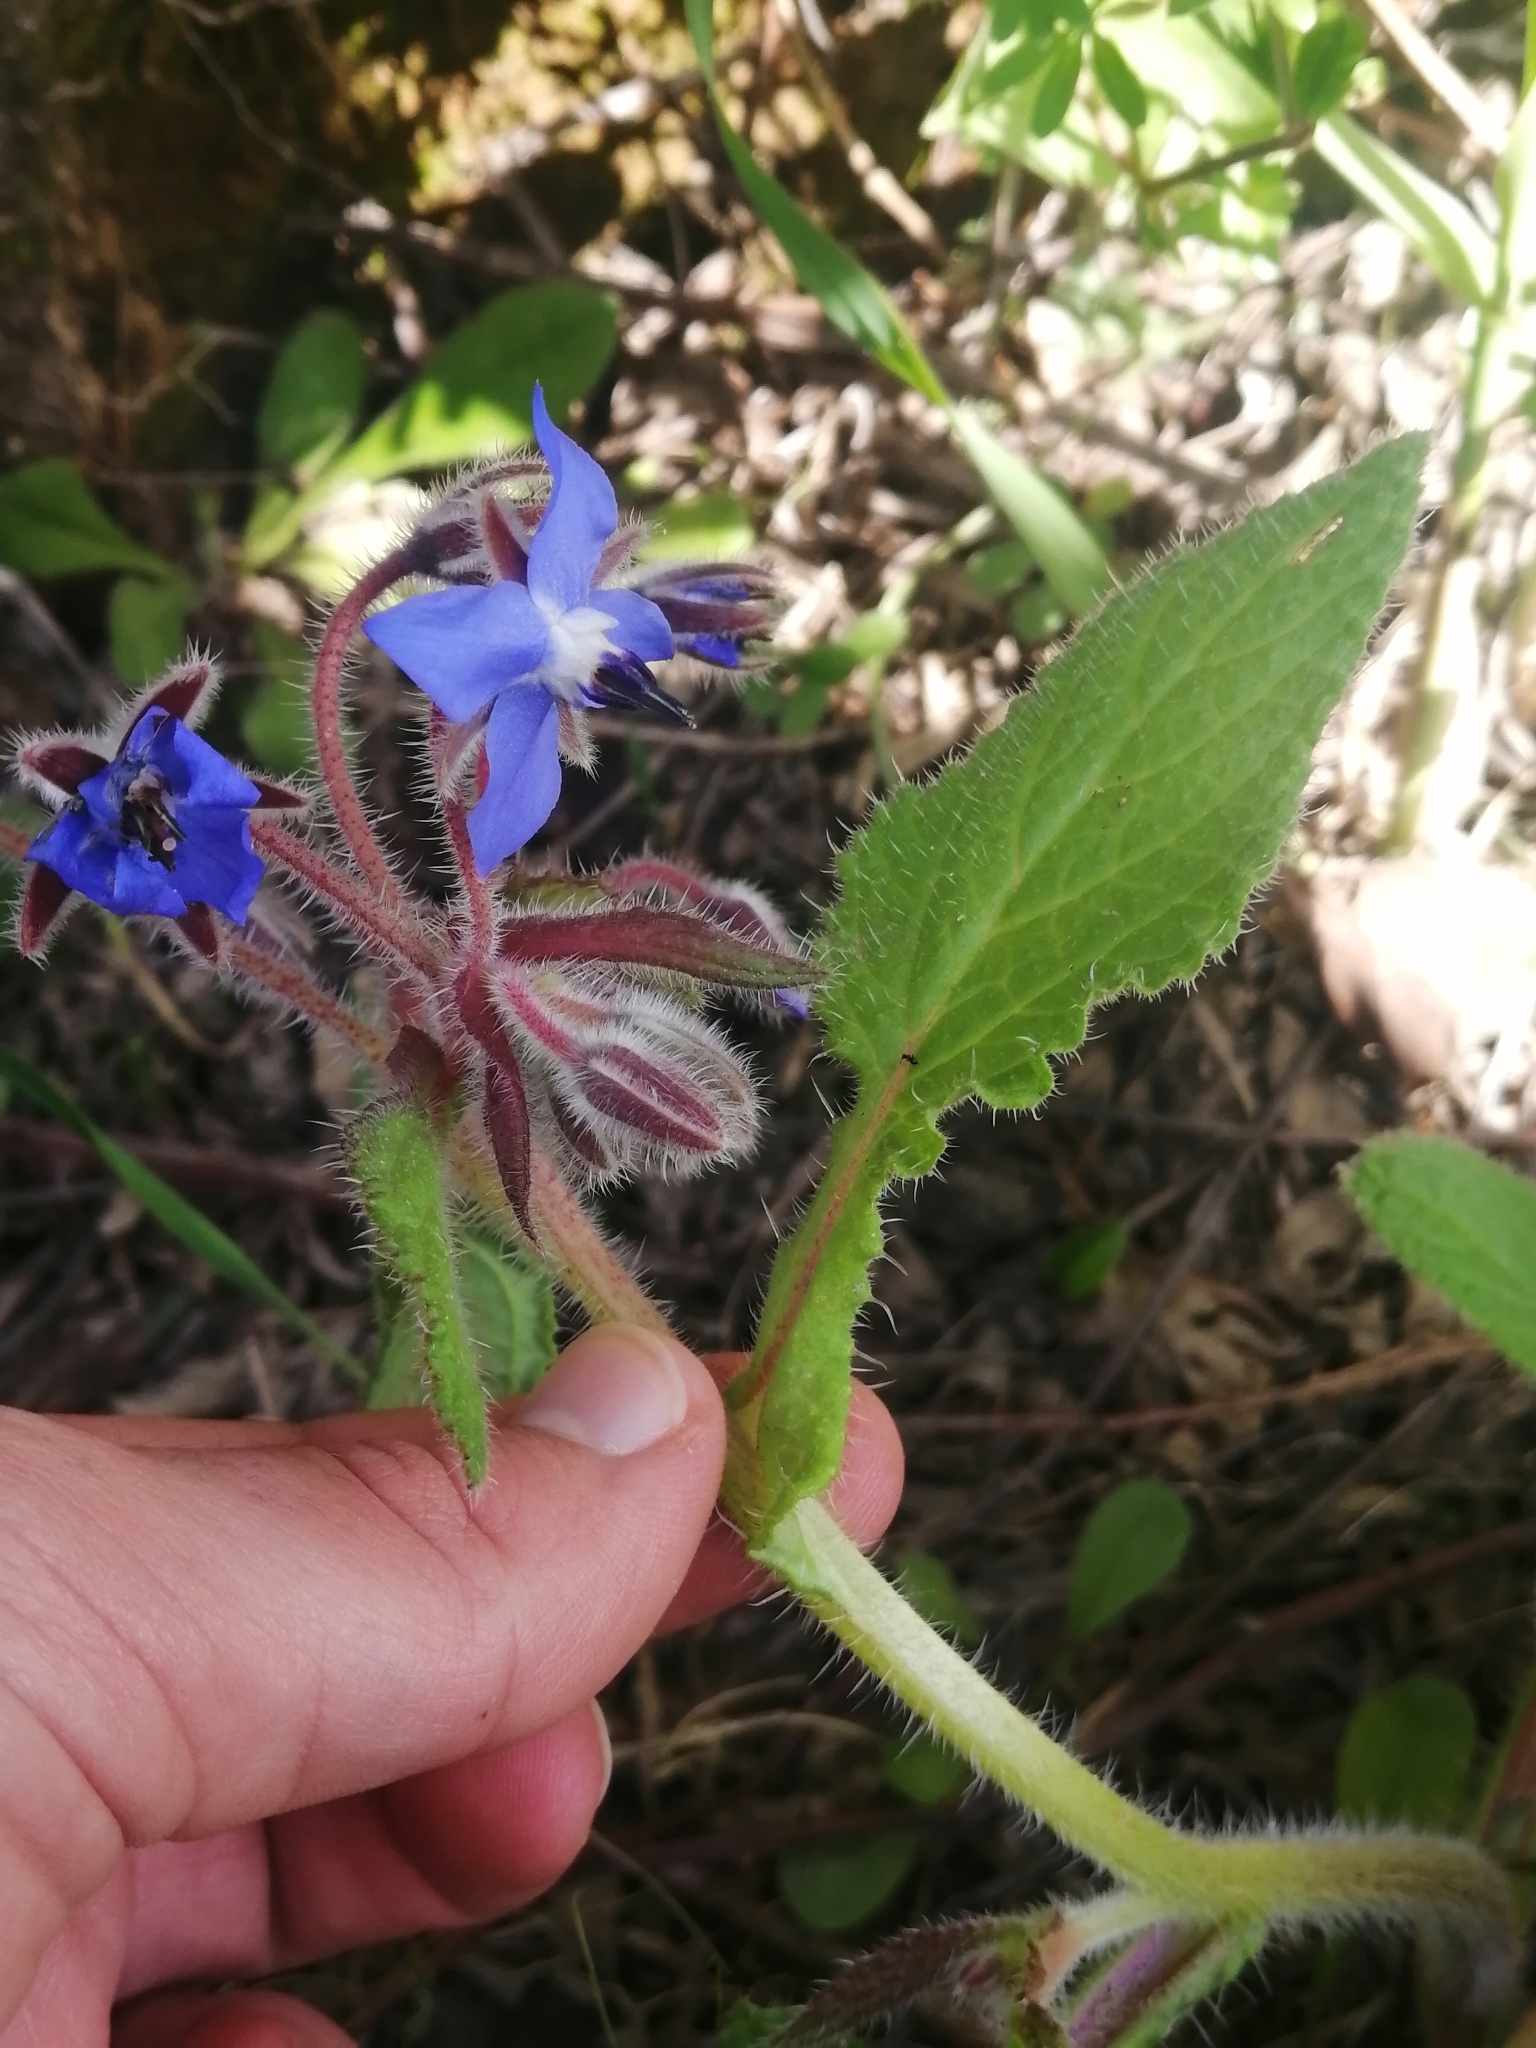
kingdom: Plantae
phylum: Tracheophyta
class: Magnoliopsida
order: Boraginales
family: Boraginaceae
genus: Borago
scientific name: Borago officinalis
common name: Borage
